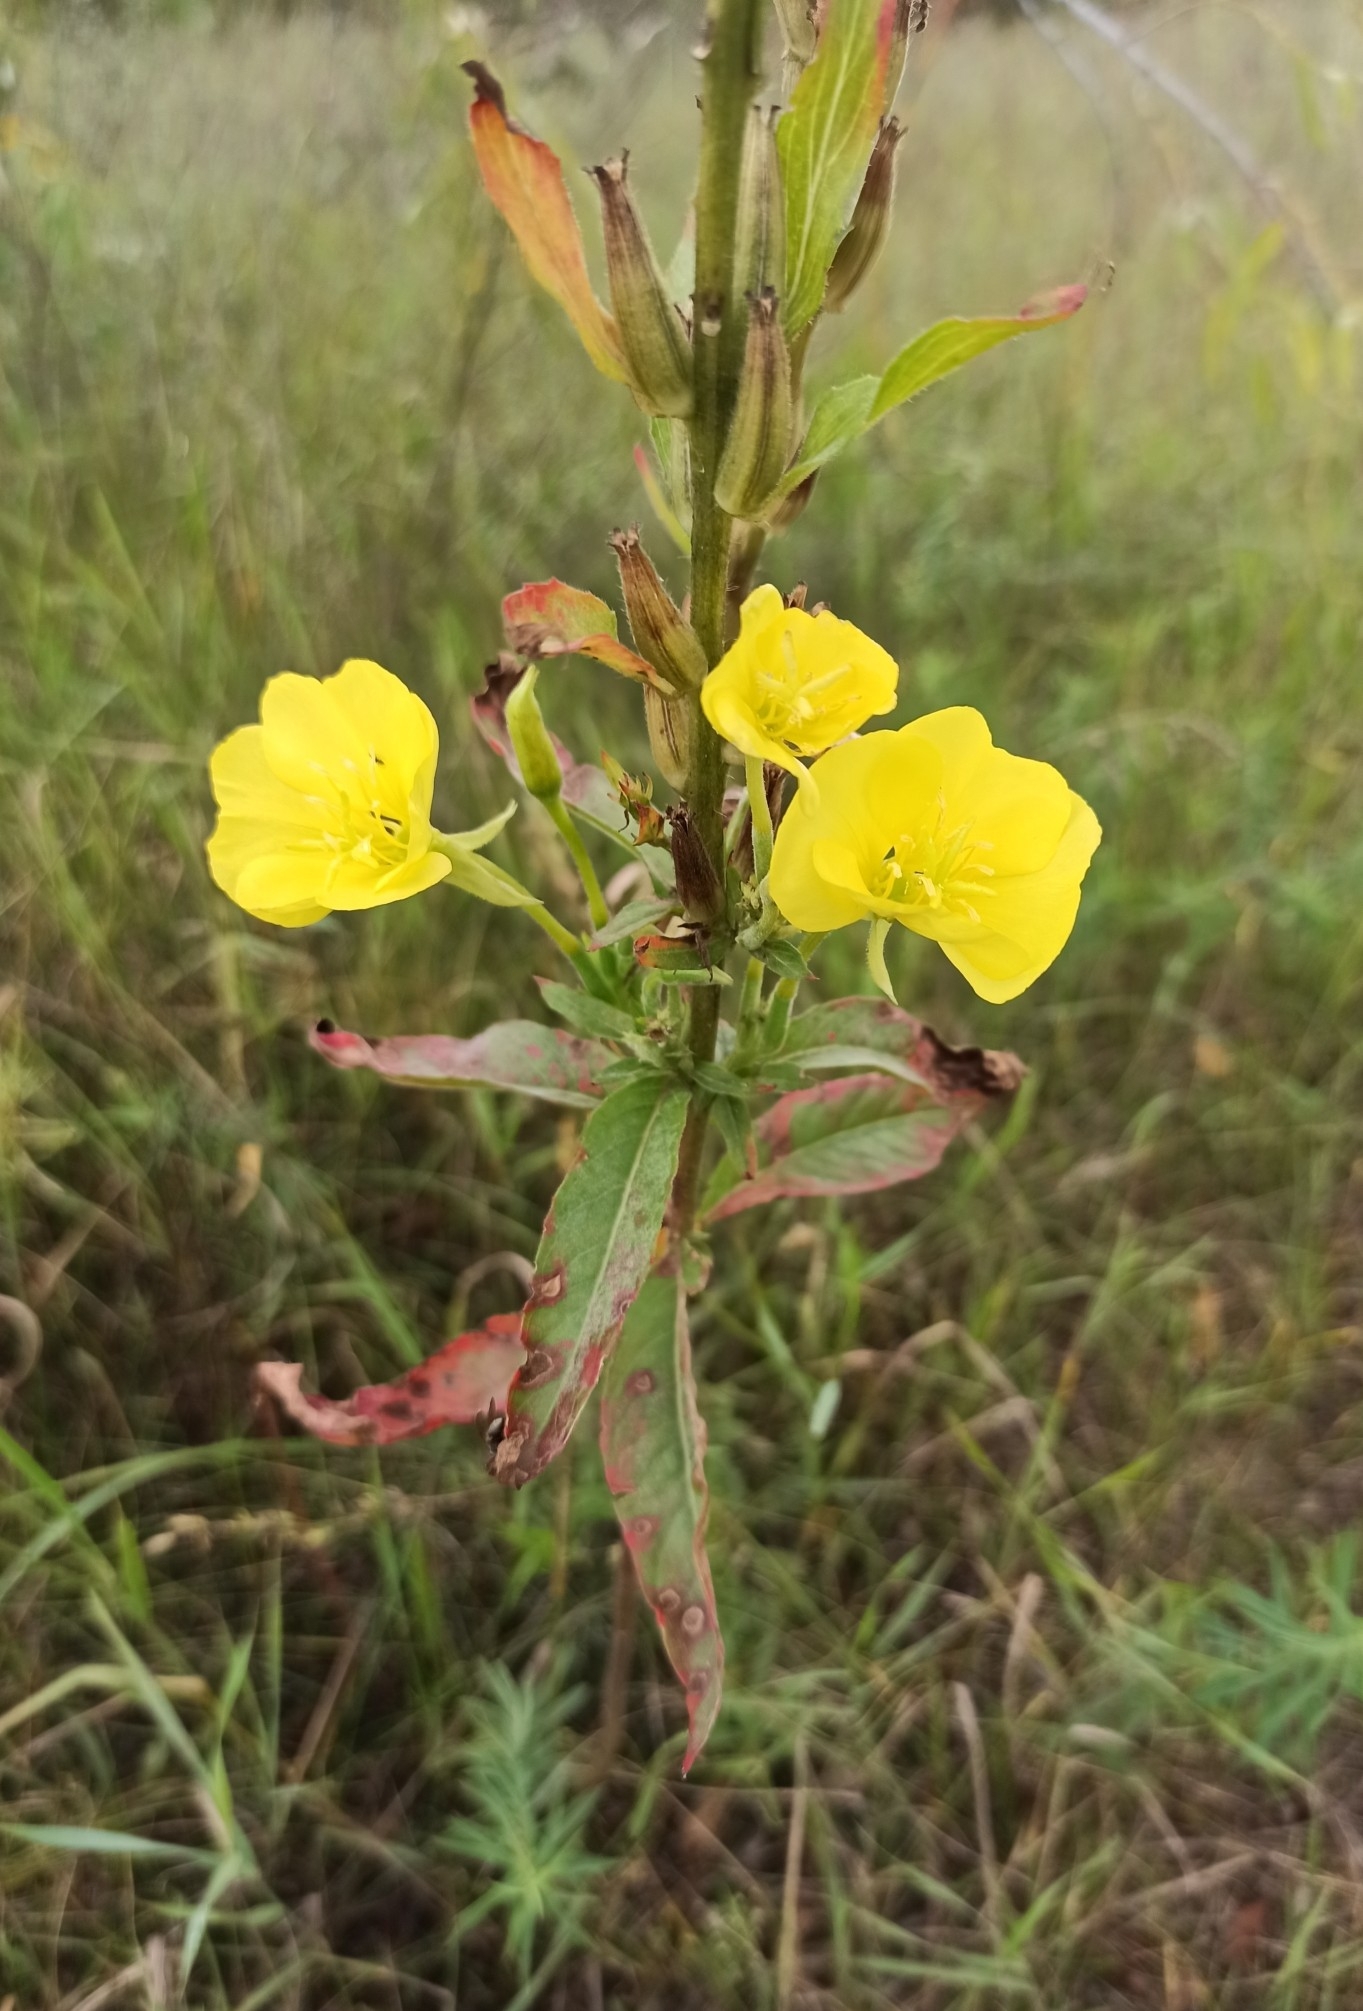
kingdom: Plantae
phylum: Tracheophyta
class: Magnoliopsida
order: Myrtales
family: Onagraceae
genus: Oenothera
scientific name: Oenothera biennis
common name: Common evening-primrose
